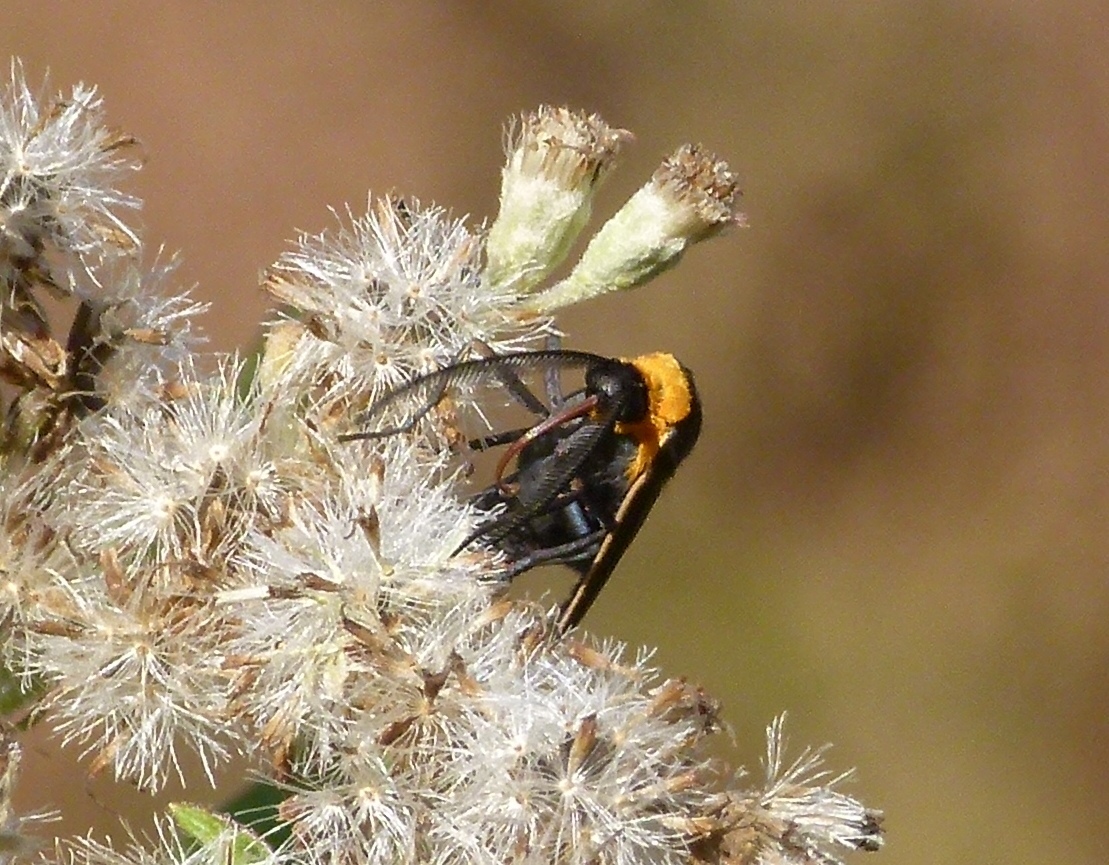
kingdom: Animalia
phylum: Arthropoda
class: Insecta
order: Lepidoptera
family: Erebidae
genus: Cisseps
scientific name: Cisseps fulvicollis
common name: Yellow-collared scape moth
